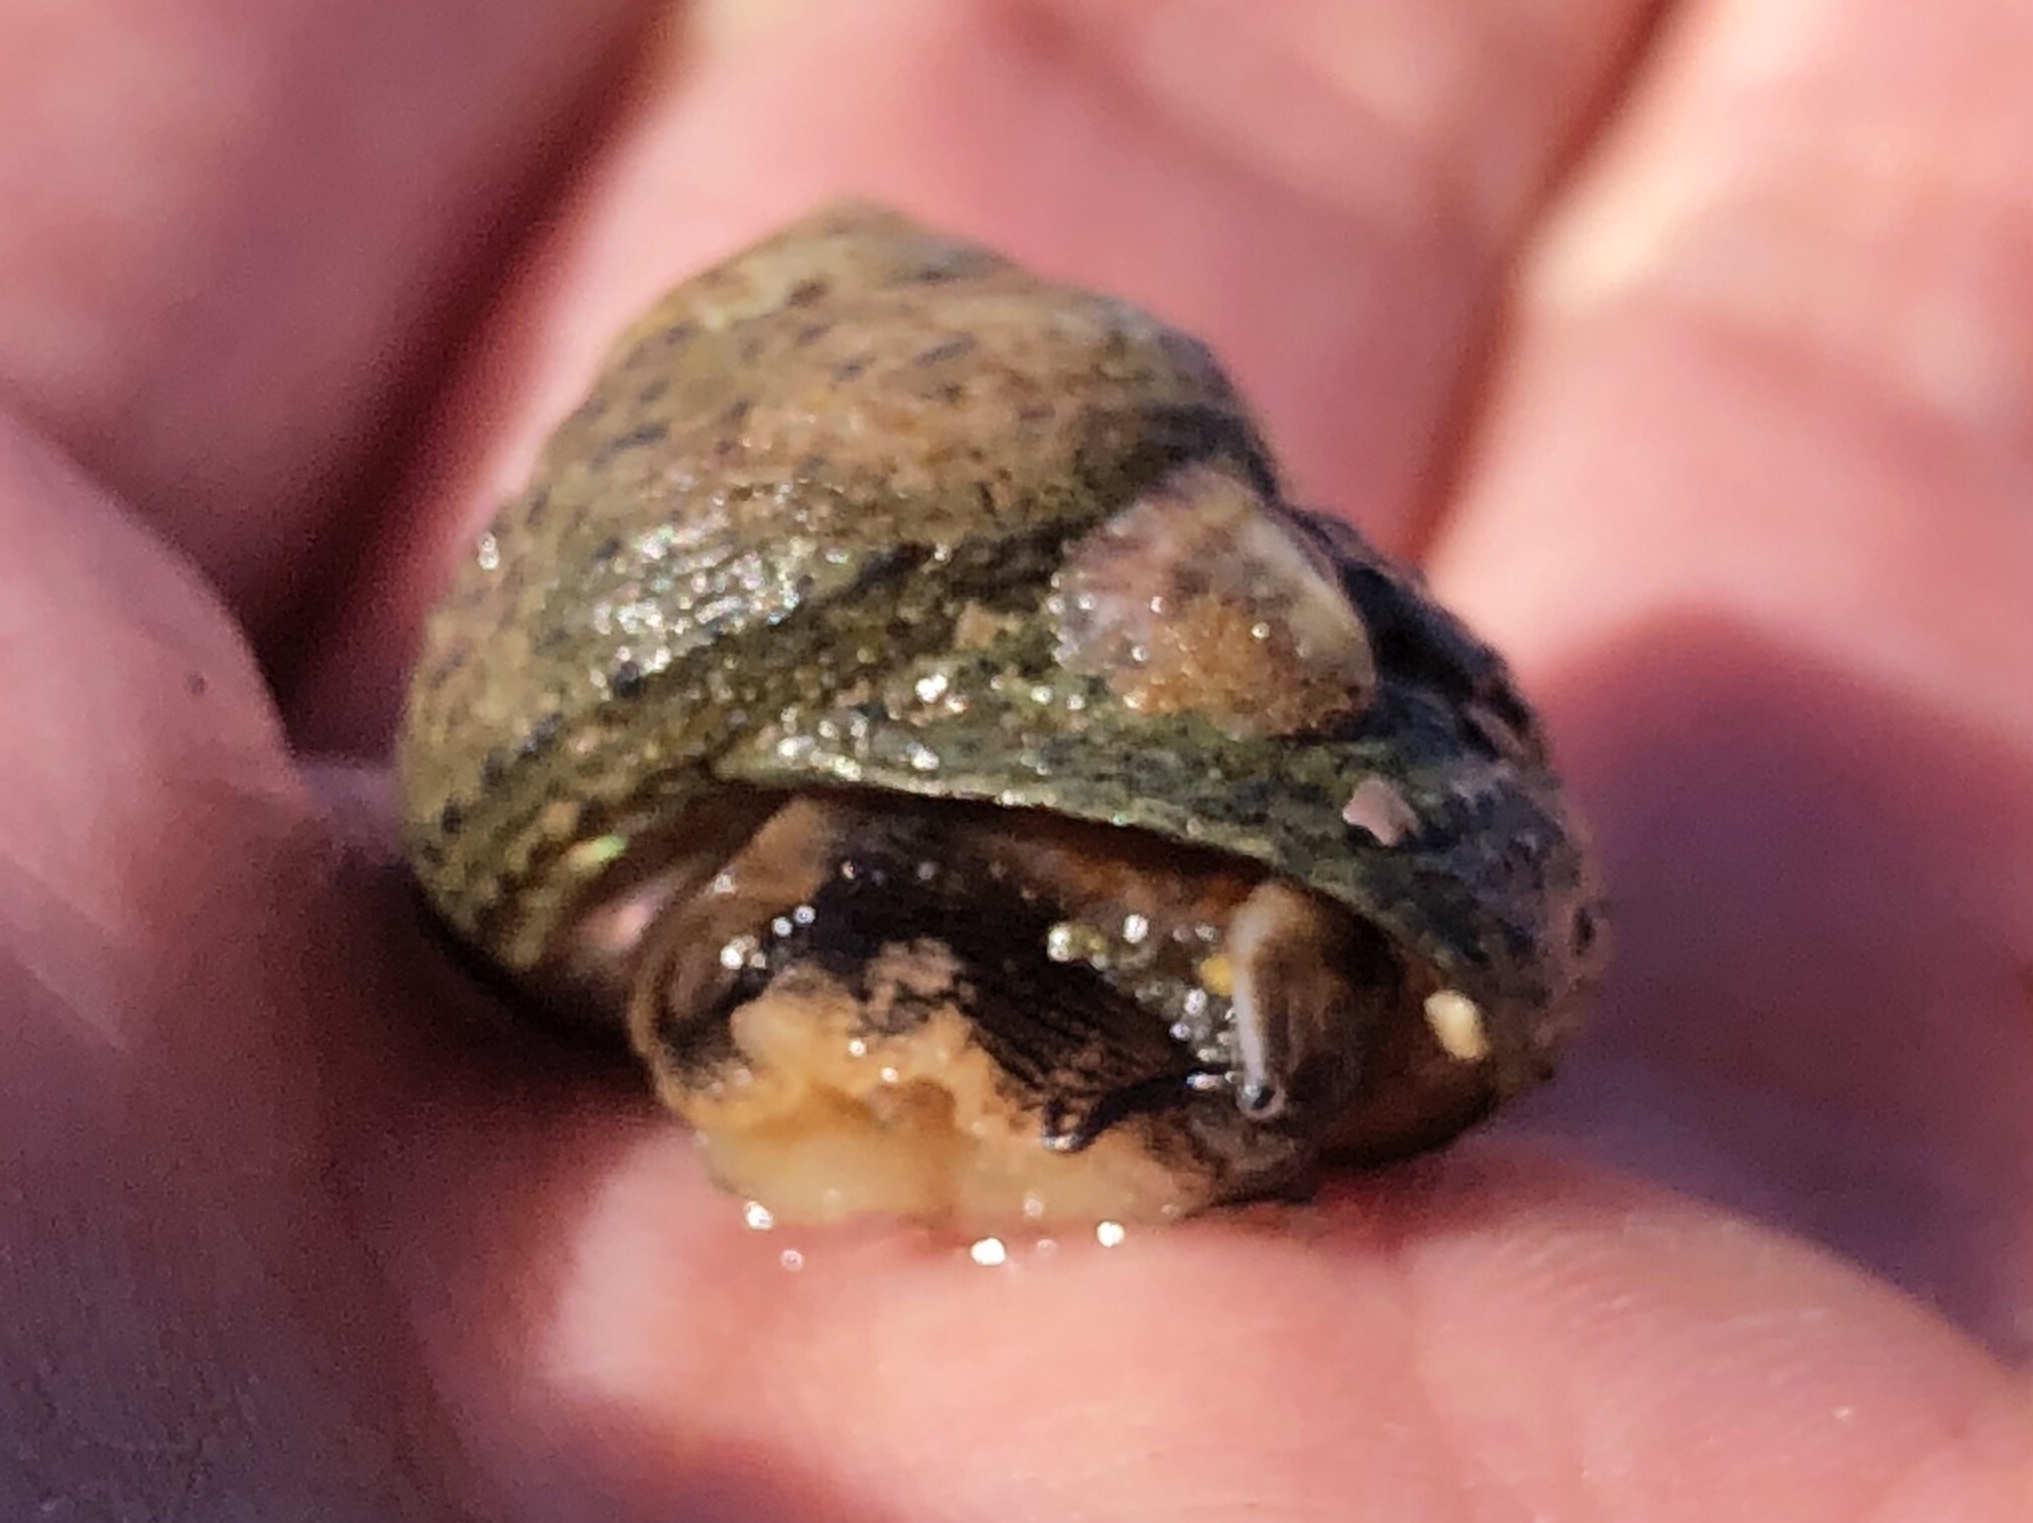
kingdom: Animalia
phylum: Mollusca
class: Gastropoda
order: Trochida
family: Tegulidae
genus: Tegula
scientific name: Tegula eiseni
